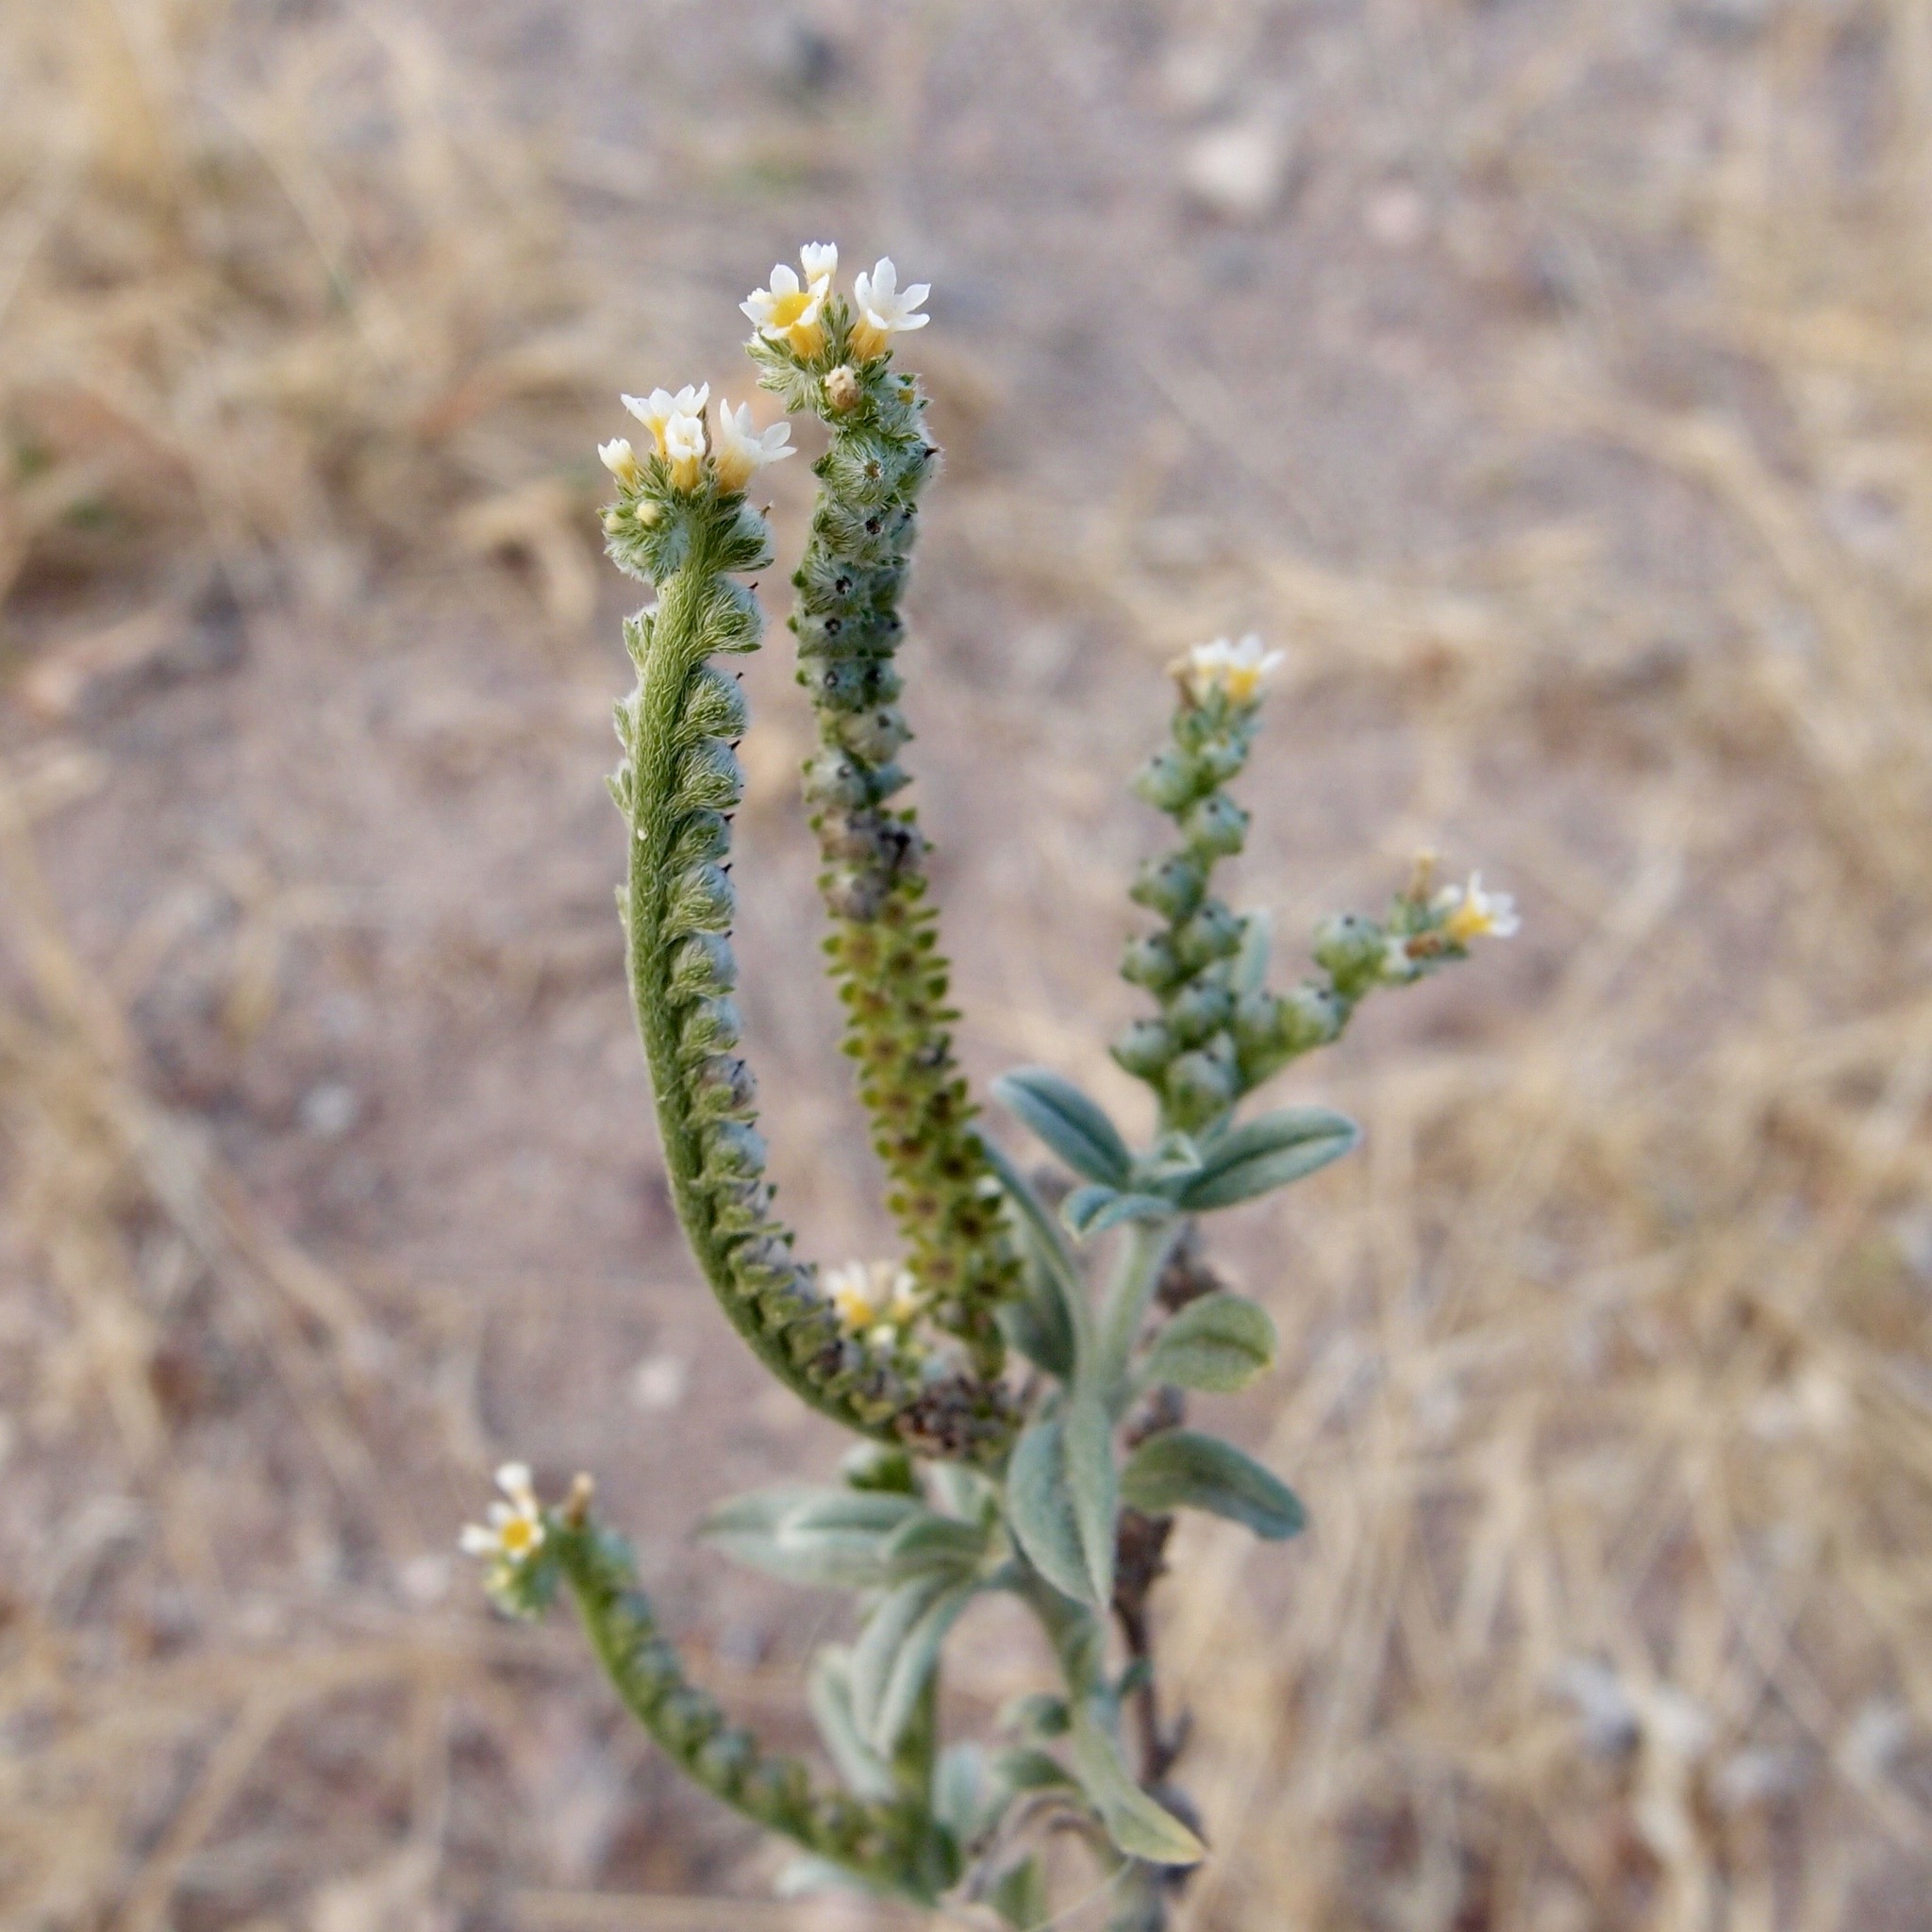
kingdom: Plantae
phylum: Tracheophyta
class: Magnoliopsida
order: Boraginales
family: Heliotropiaceae
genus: Euploca
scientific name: Euploca procumbens
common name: Fourspike heliotrope
